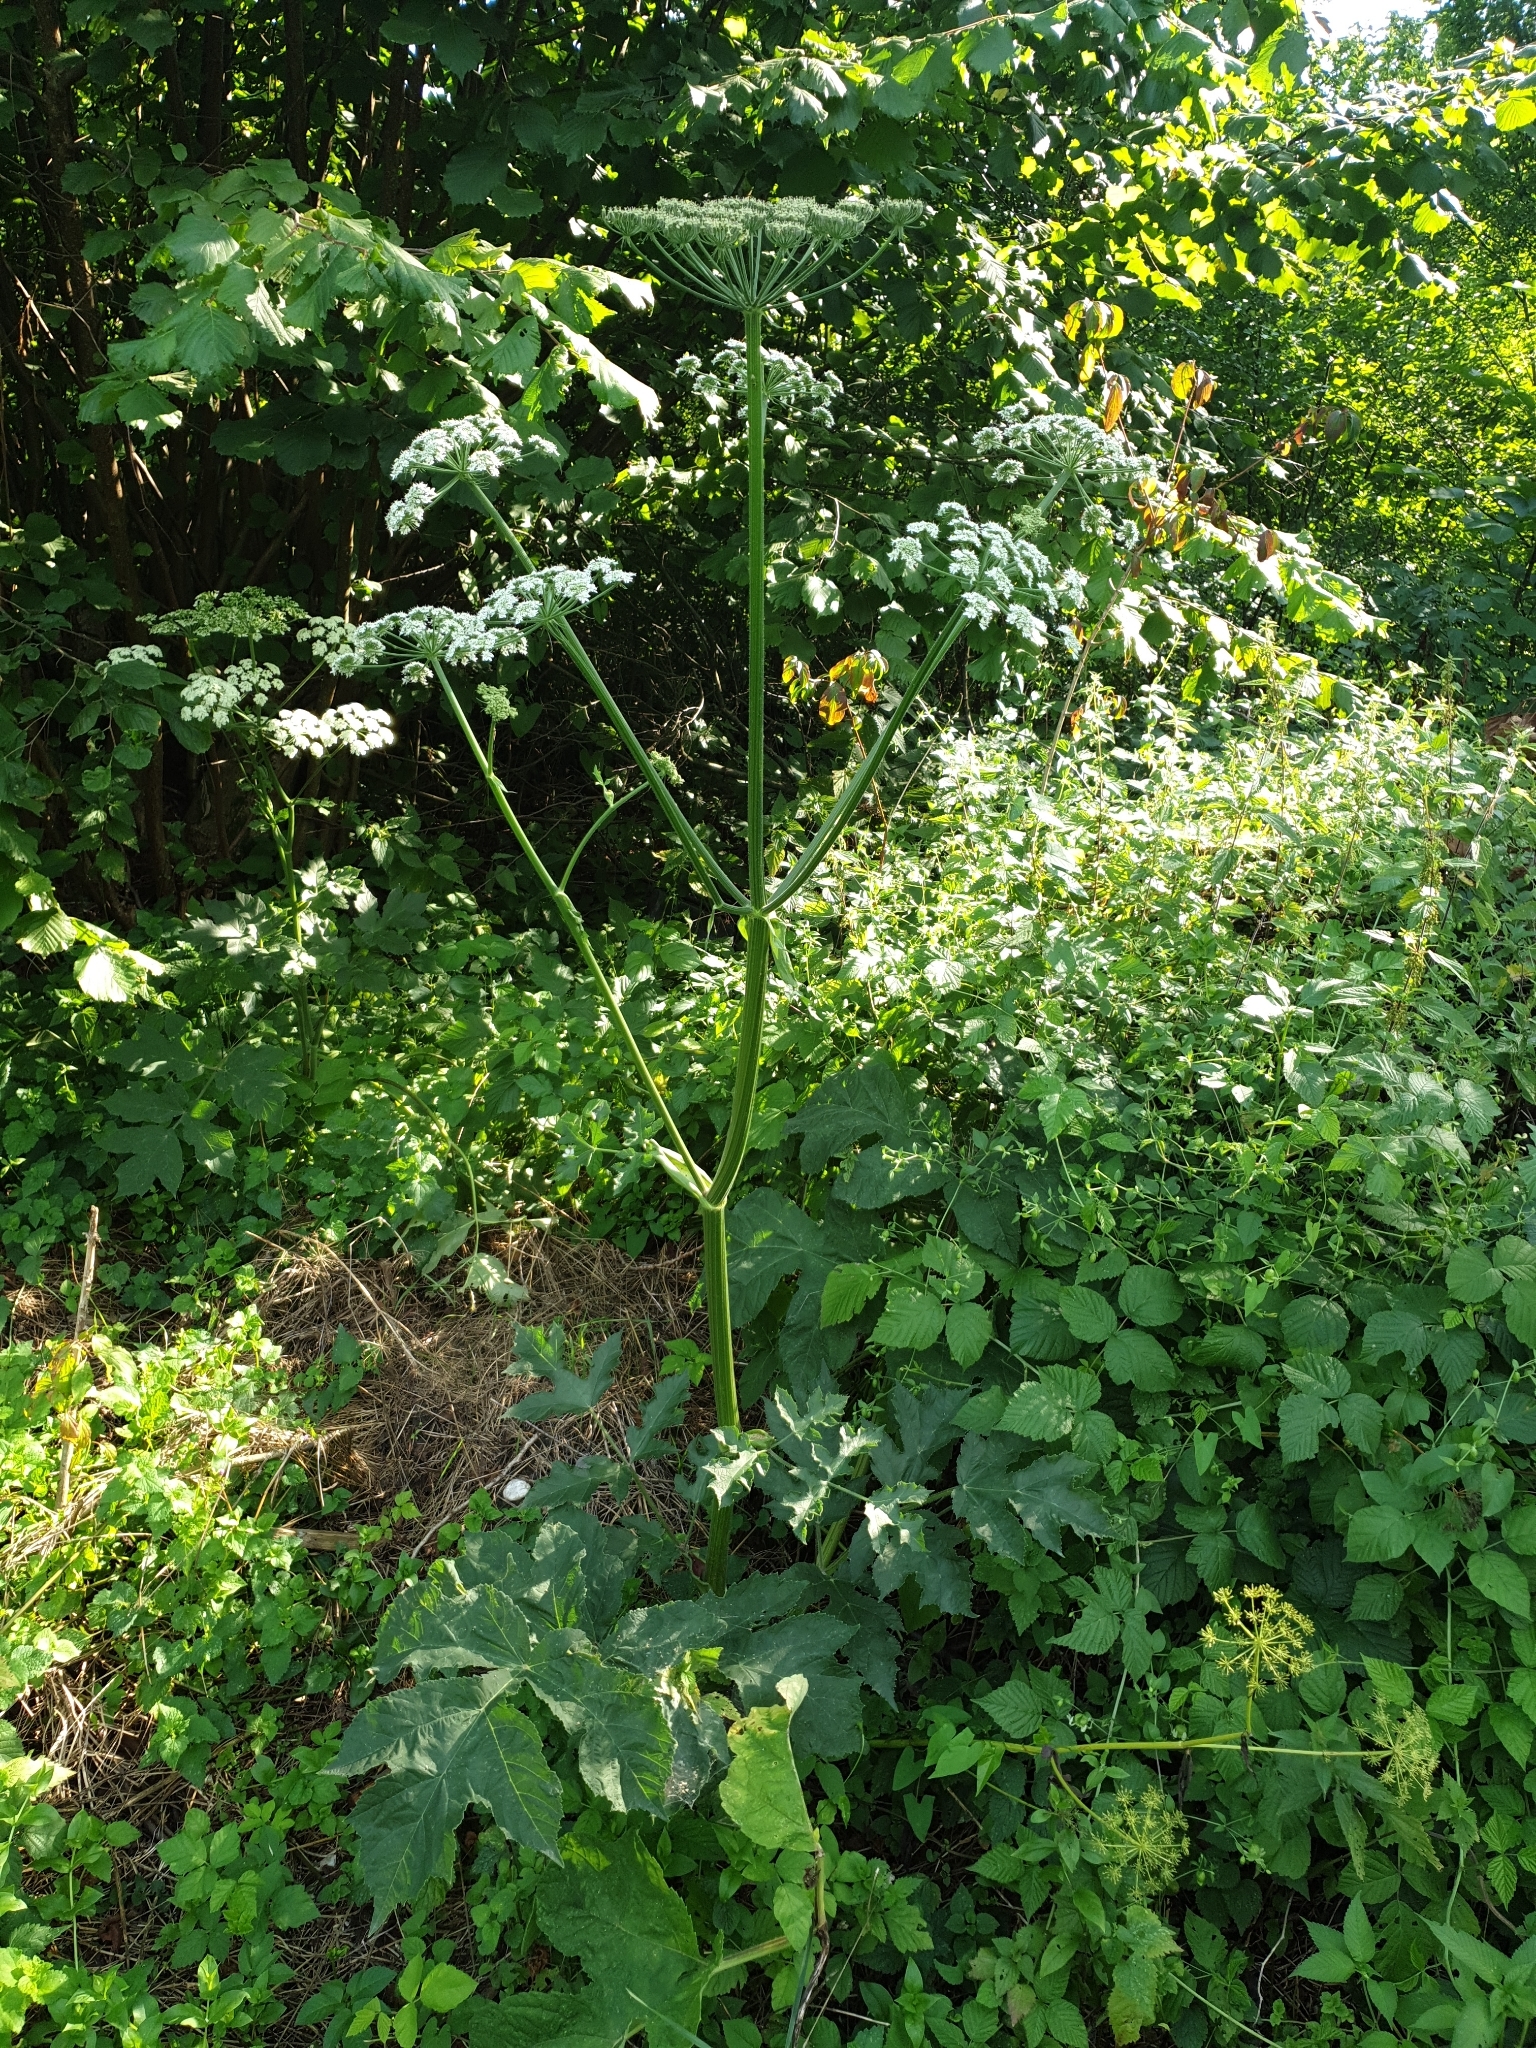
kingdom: Plantae
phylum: Tracheophyta
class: Magnoliopsida
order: Apiales
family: Apiaceae
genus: Heracleum
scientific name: Heracleum sphondylium
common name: Hogweed
